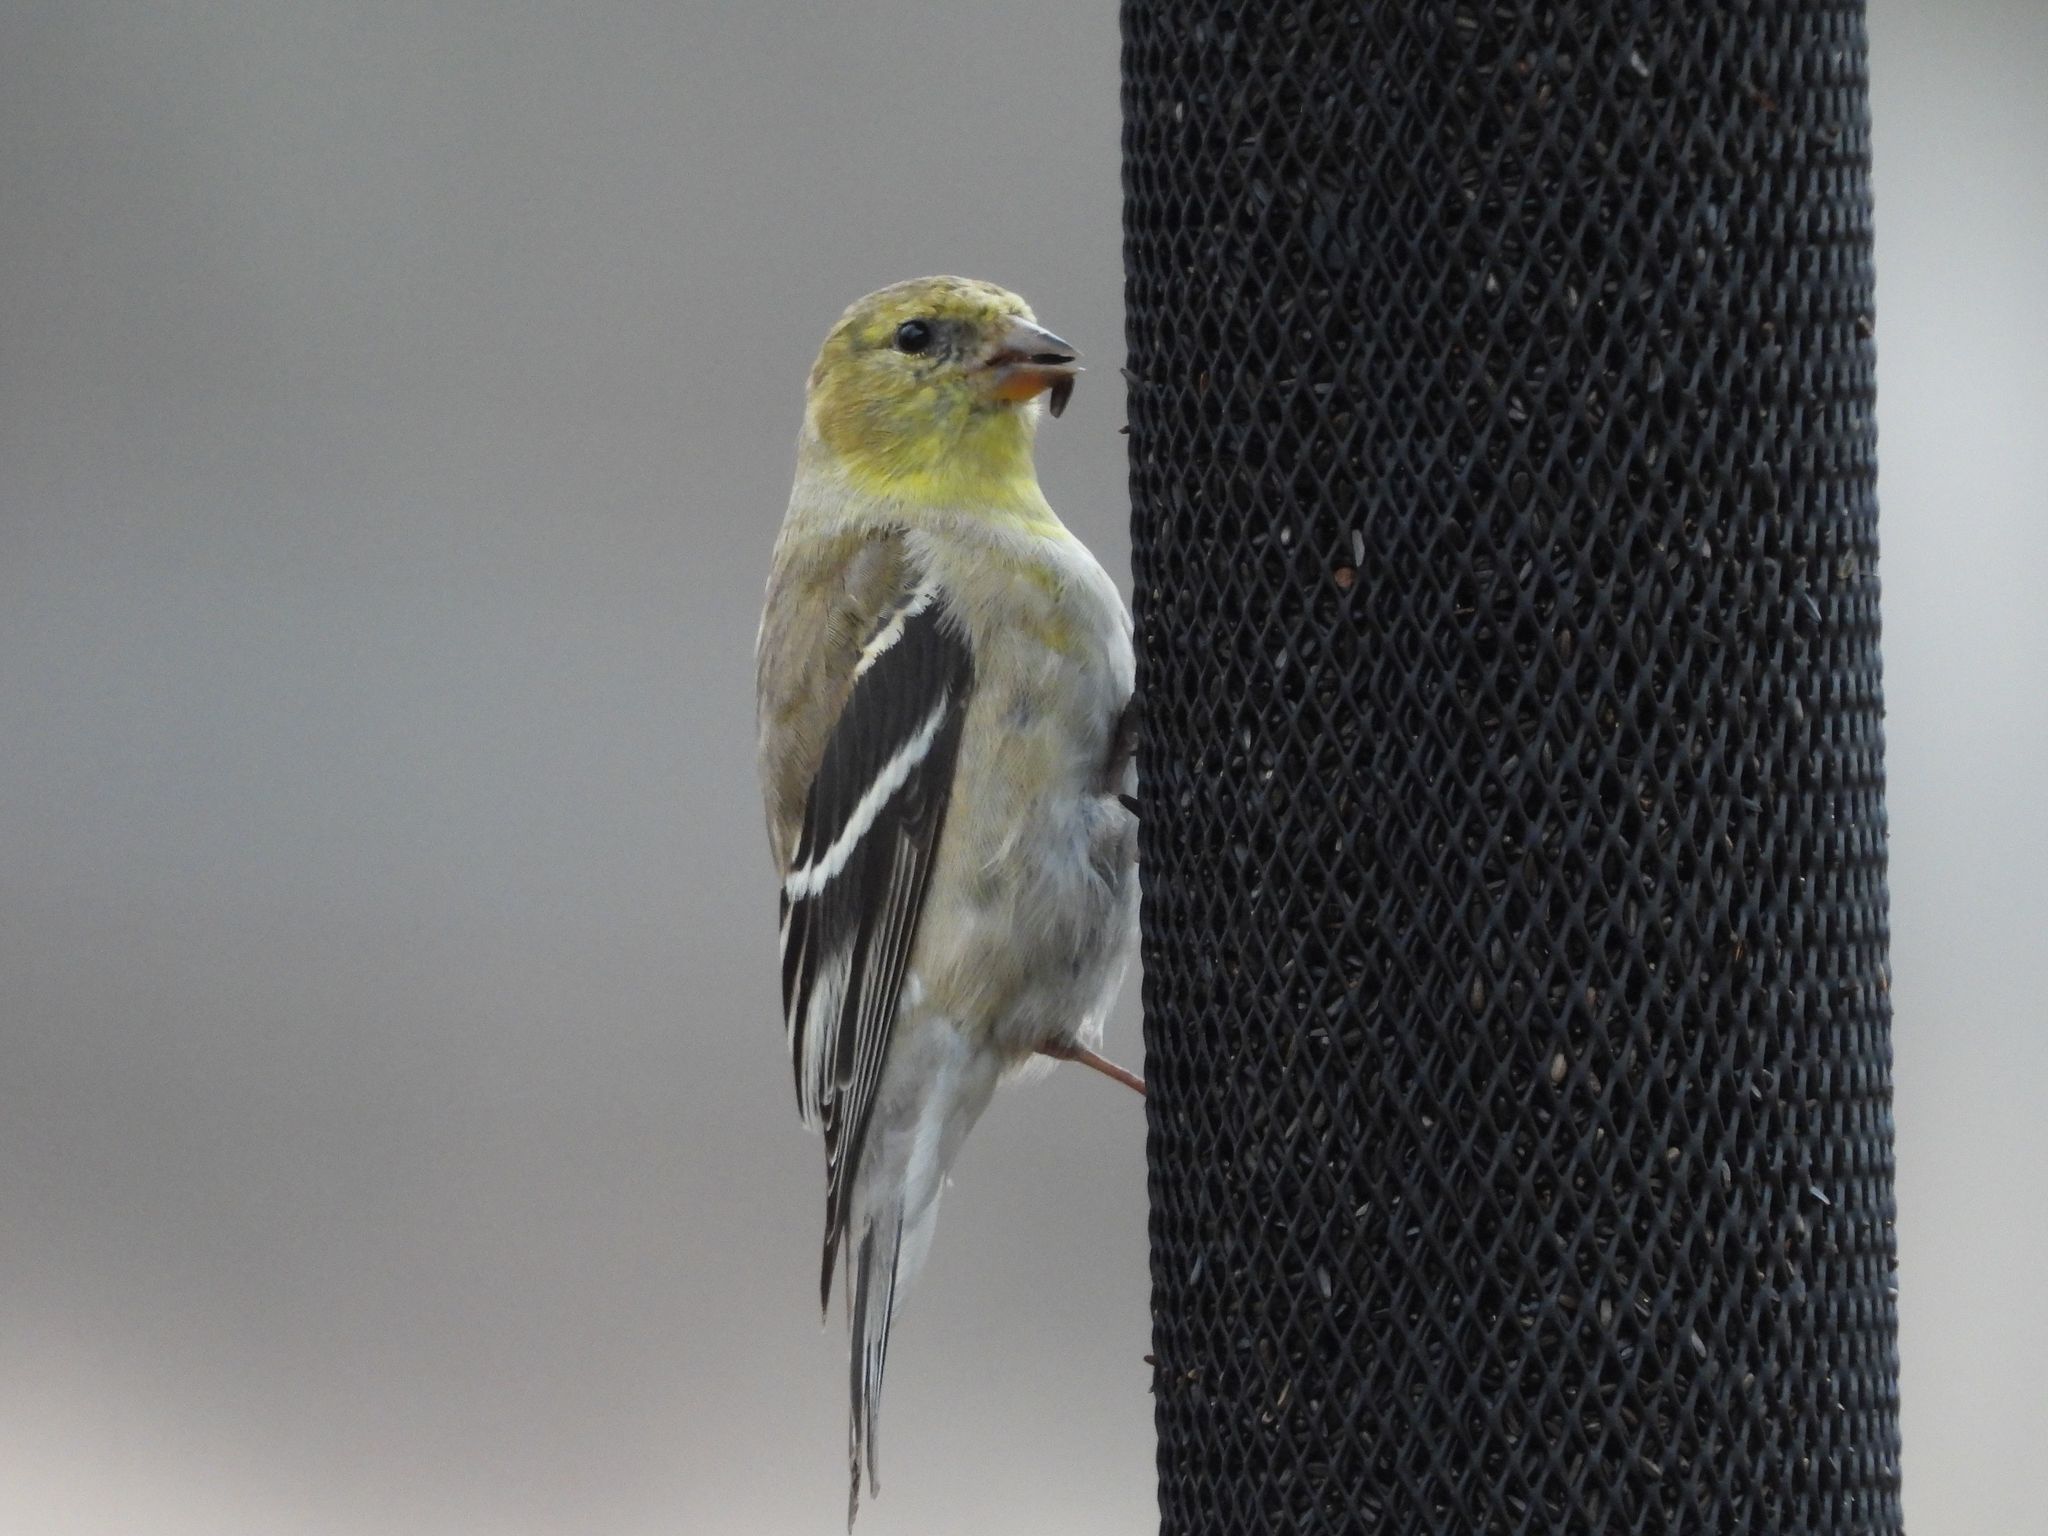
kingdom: Animalia
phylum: Chordata
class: Aves
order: Passeriformes
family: Fringillidae
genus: Spinus
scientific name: Spinus tristis
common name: American goldfinch
